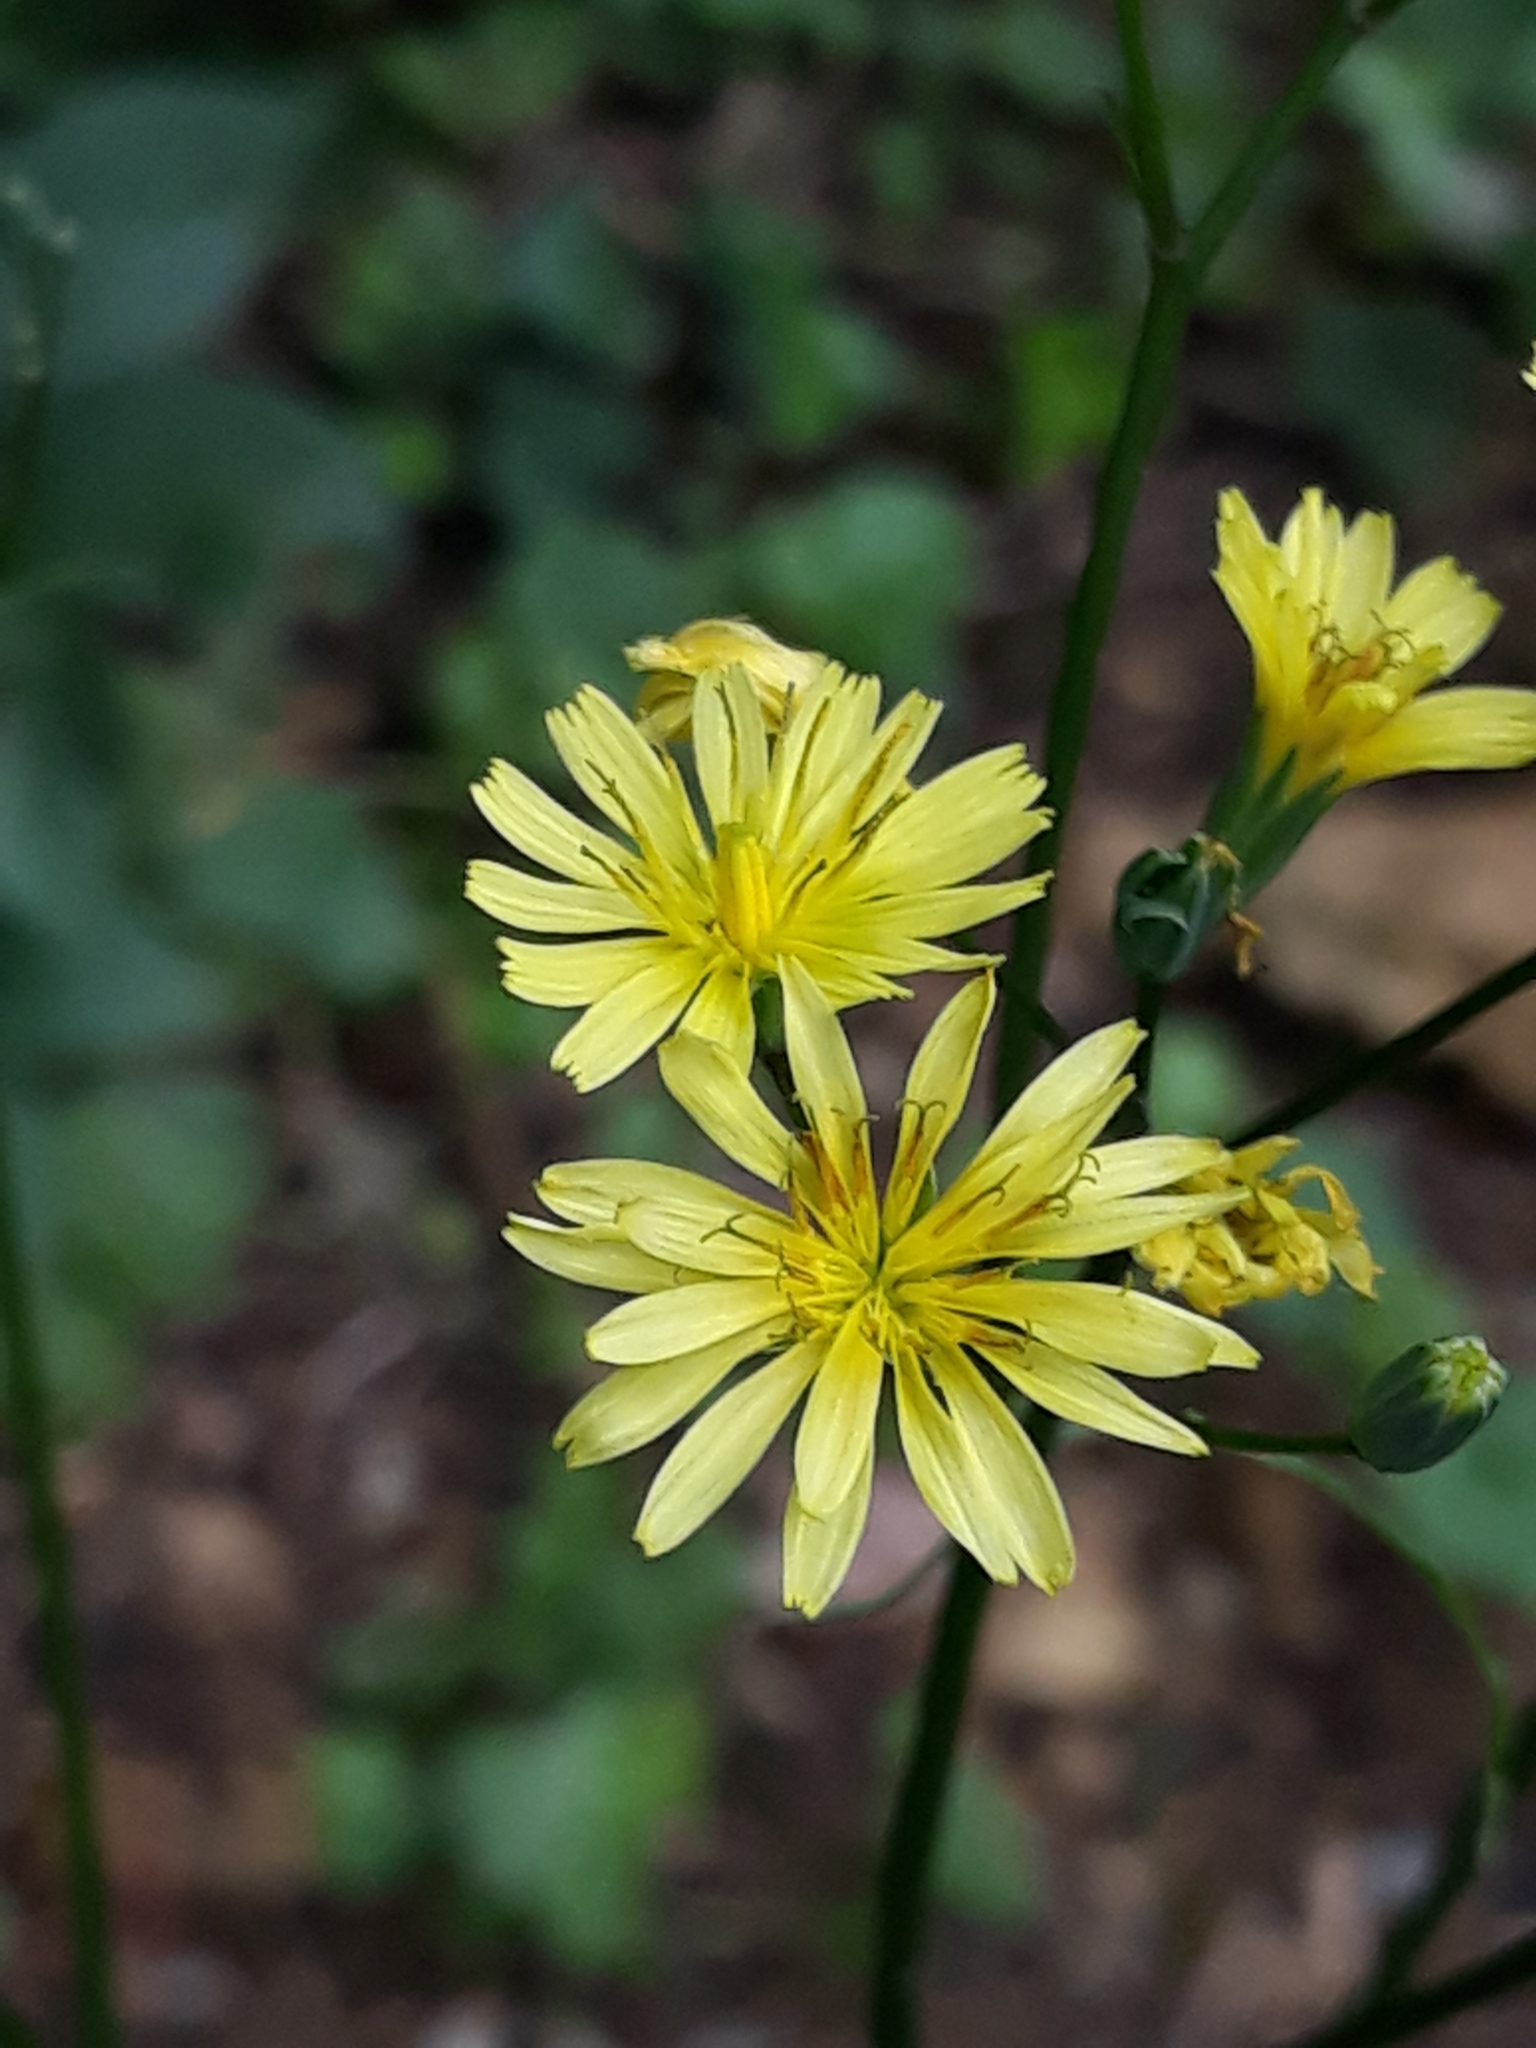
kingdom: Plantae
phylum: Tracheophyta
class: Magnoliopsida
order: Asterales
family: Asteraceae
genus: Lapsana
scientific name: Lapsana communis
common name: Nipplewort
